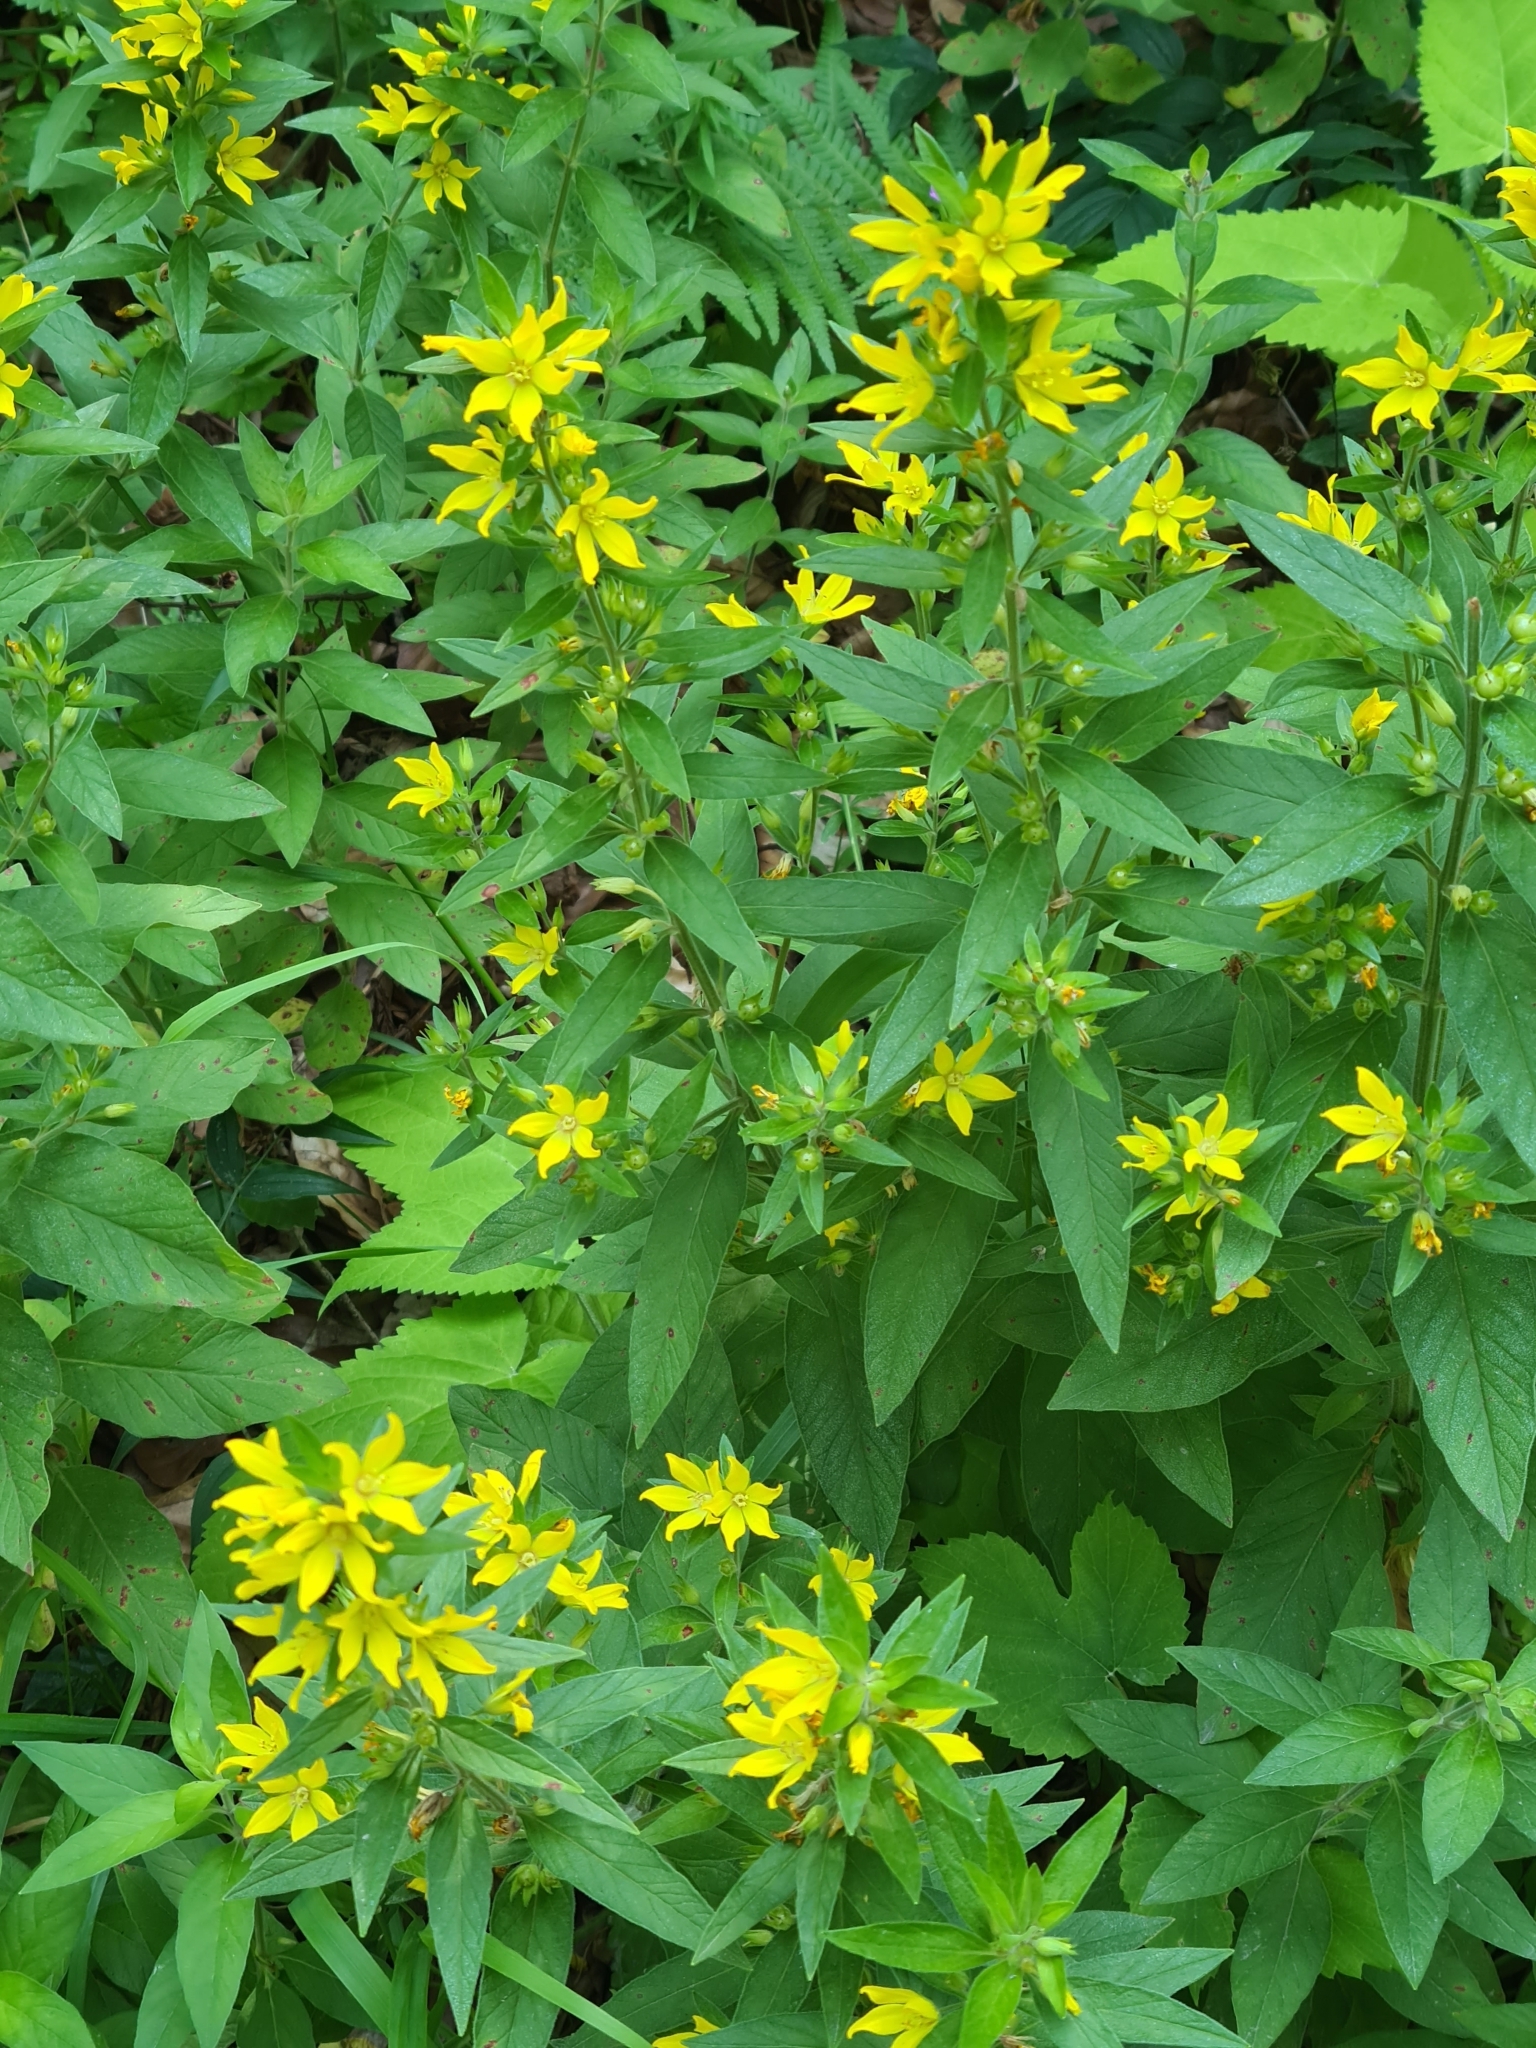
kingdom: Plantae
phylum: Tracheophyta
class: Magnoliopsida
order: Ericales
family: Primulaceae
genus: Lysimachia
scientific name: Lysimachia punctata
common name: Dotted loosestrife
